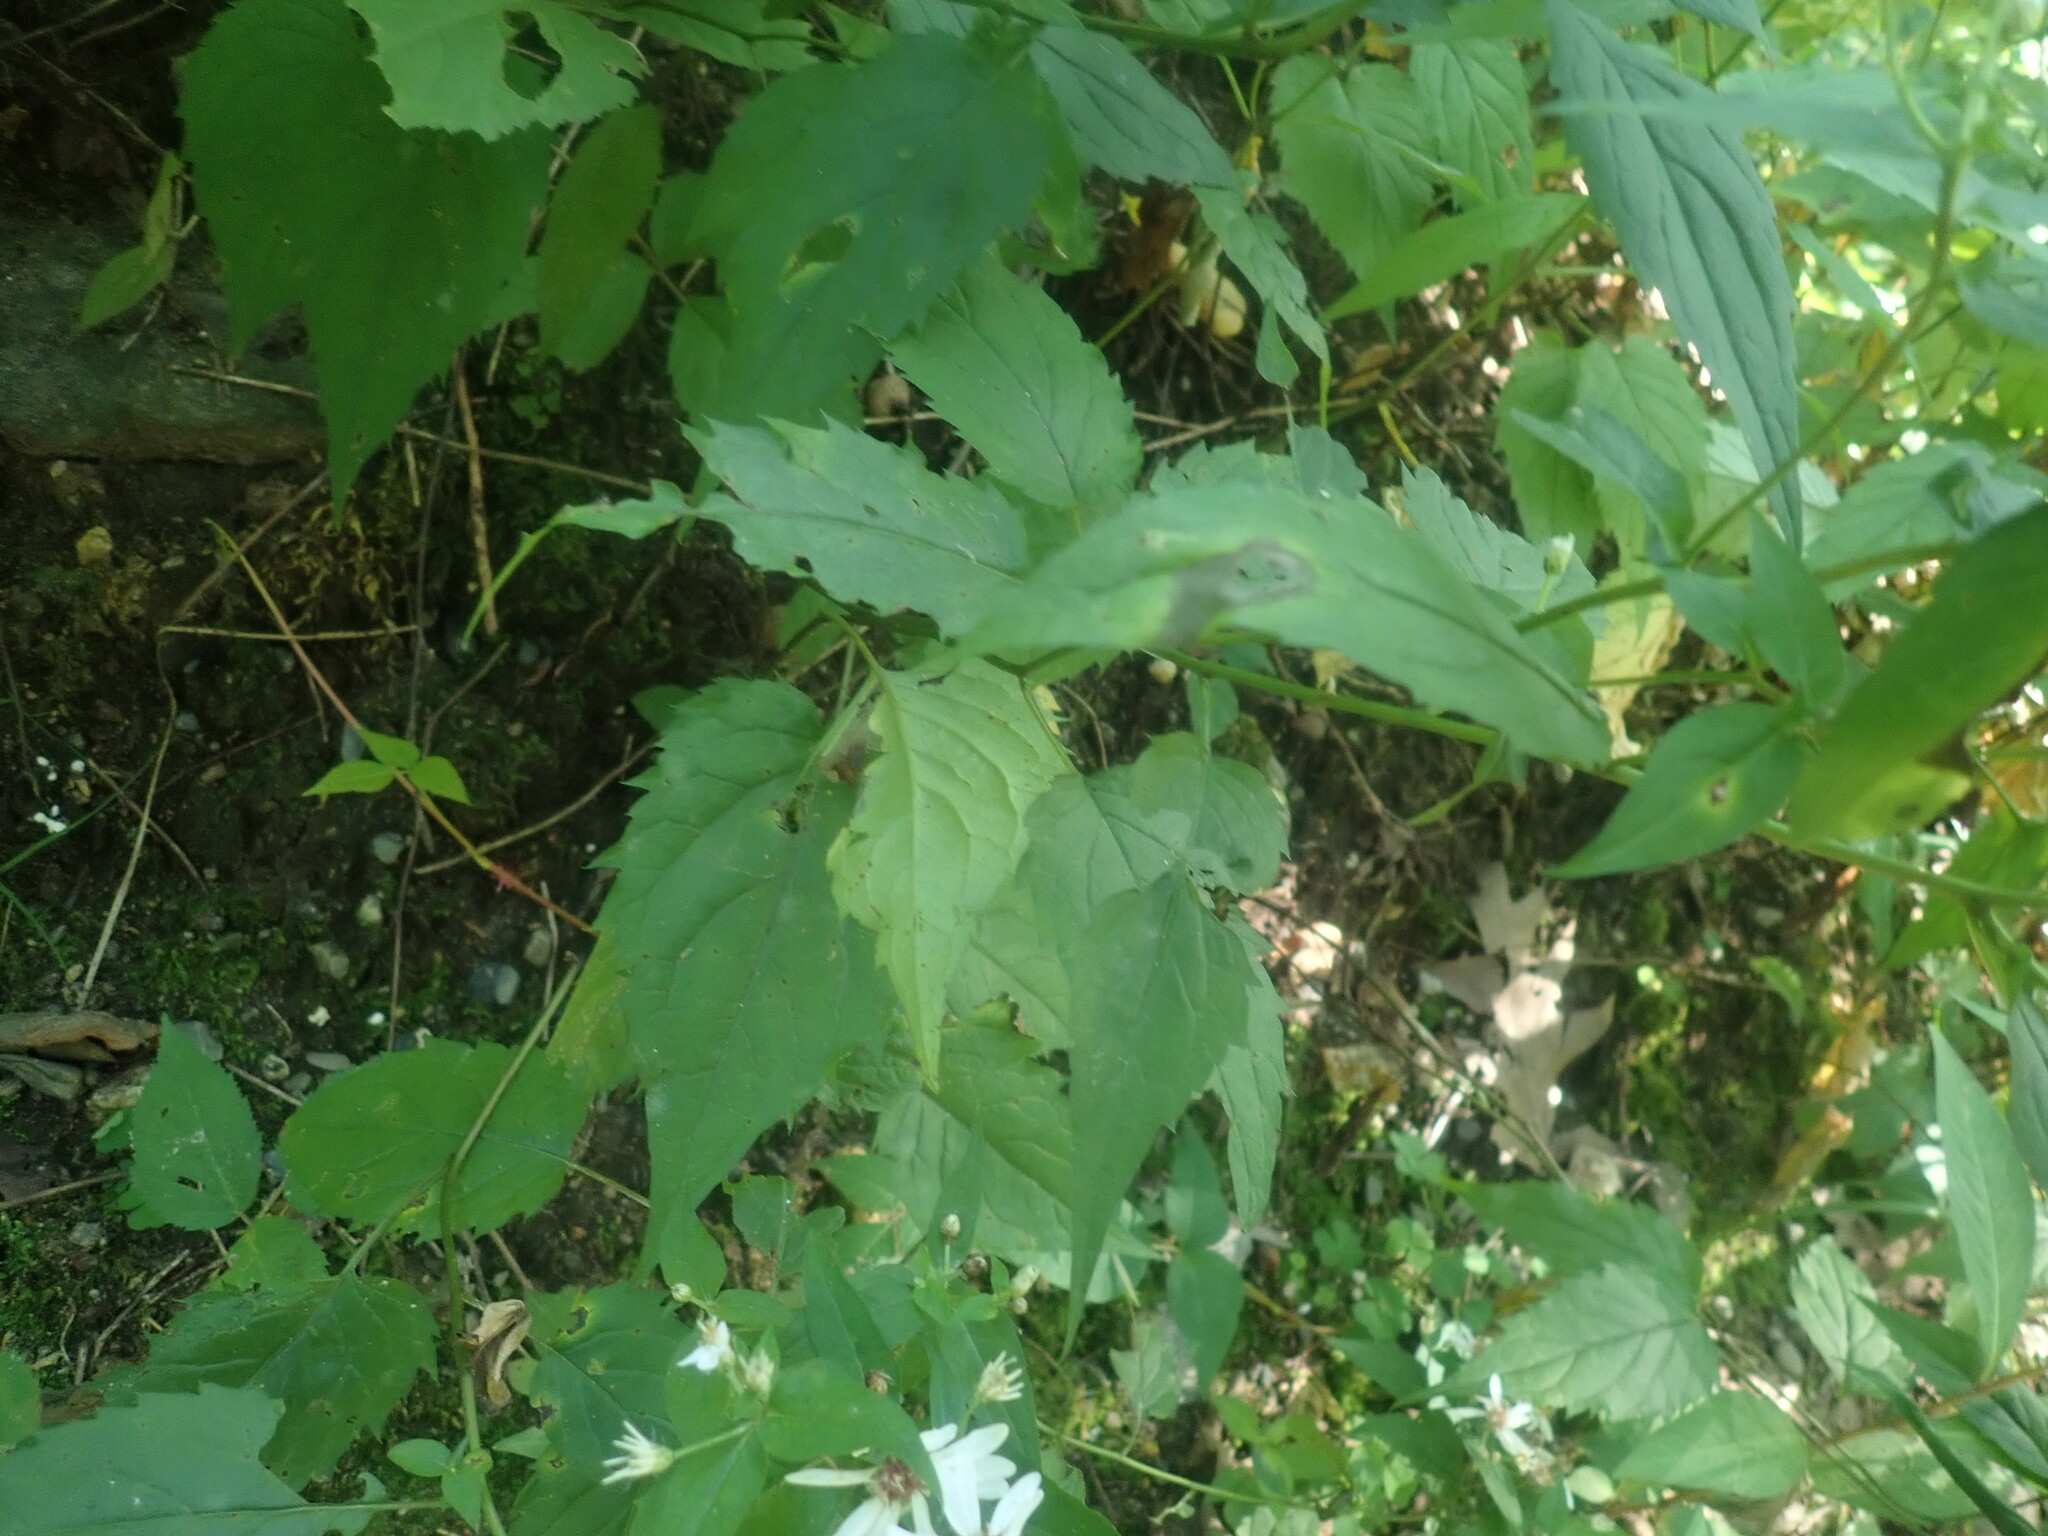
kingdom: Plantae
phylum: Tracheophyta
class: Magnoliopsida
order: Asterales
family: Asteraceae
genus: Eurybia
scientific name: Eurybia divaricata
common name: White wood aster
